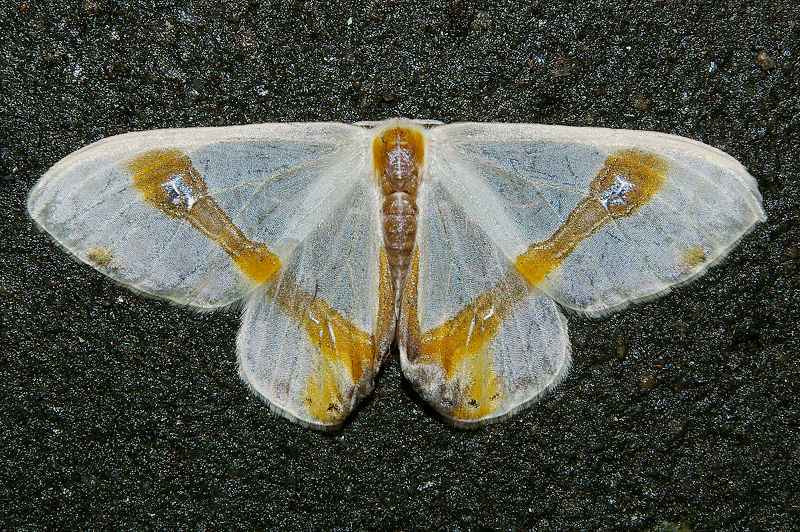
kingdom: Animalia
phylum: Arthropoda
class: Insecta
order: Lepidoptera
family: Drepanidae
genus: Macrocilix
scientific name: Macrocilix mysticata
